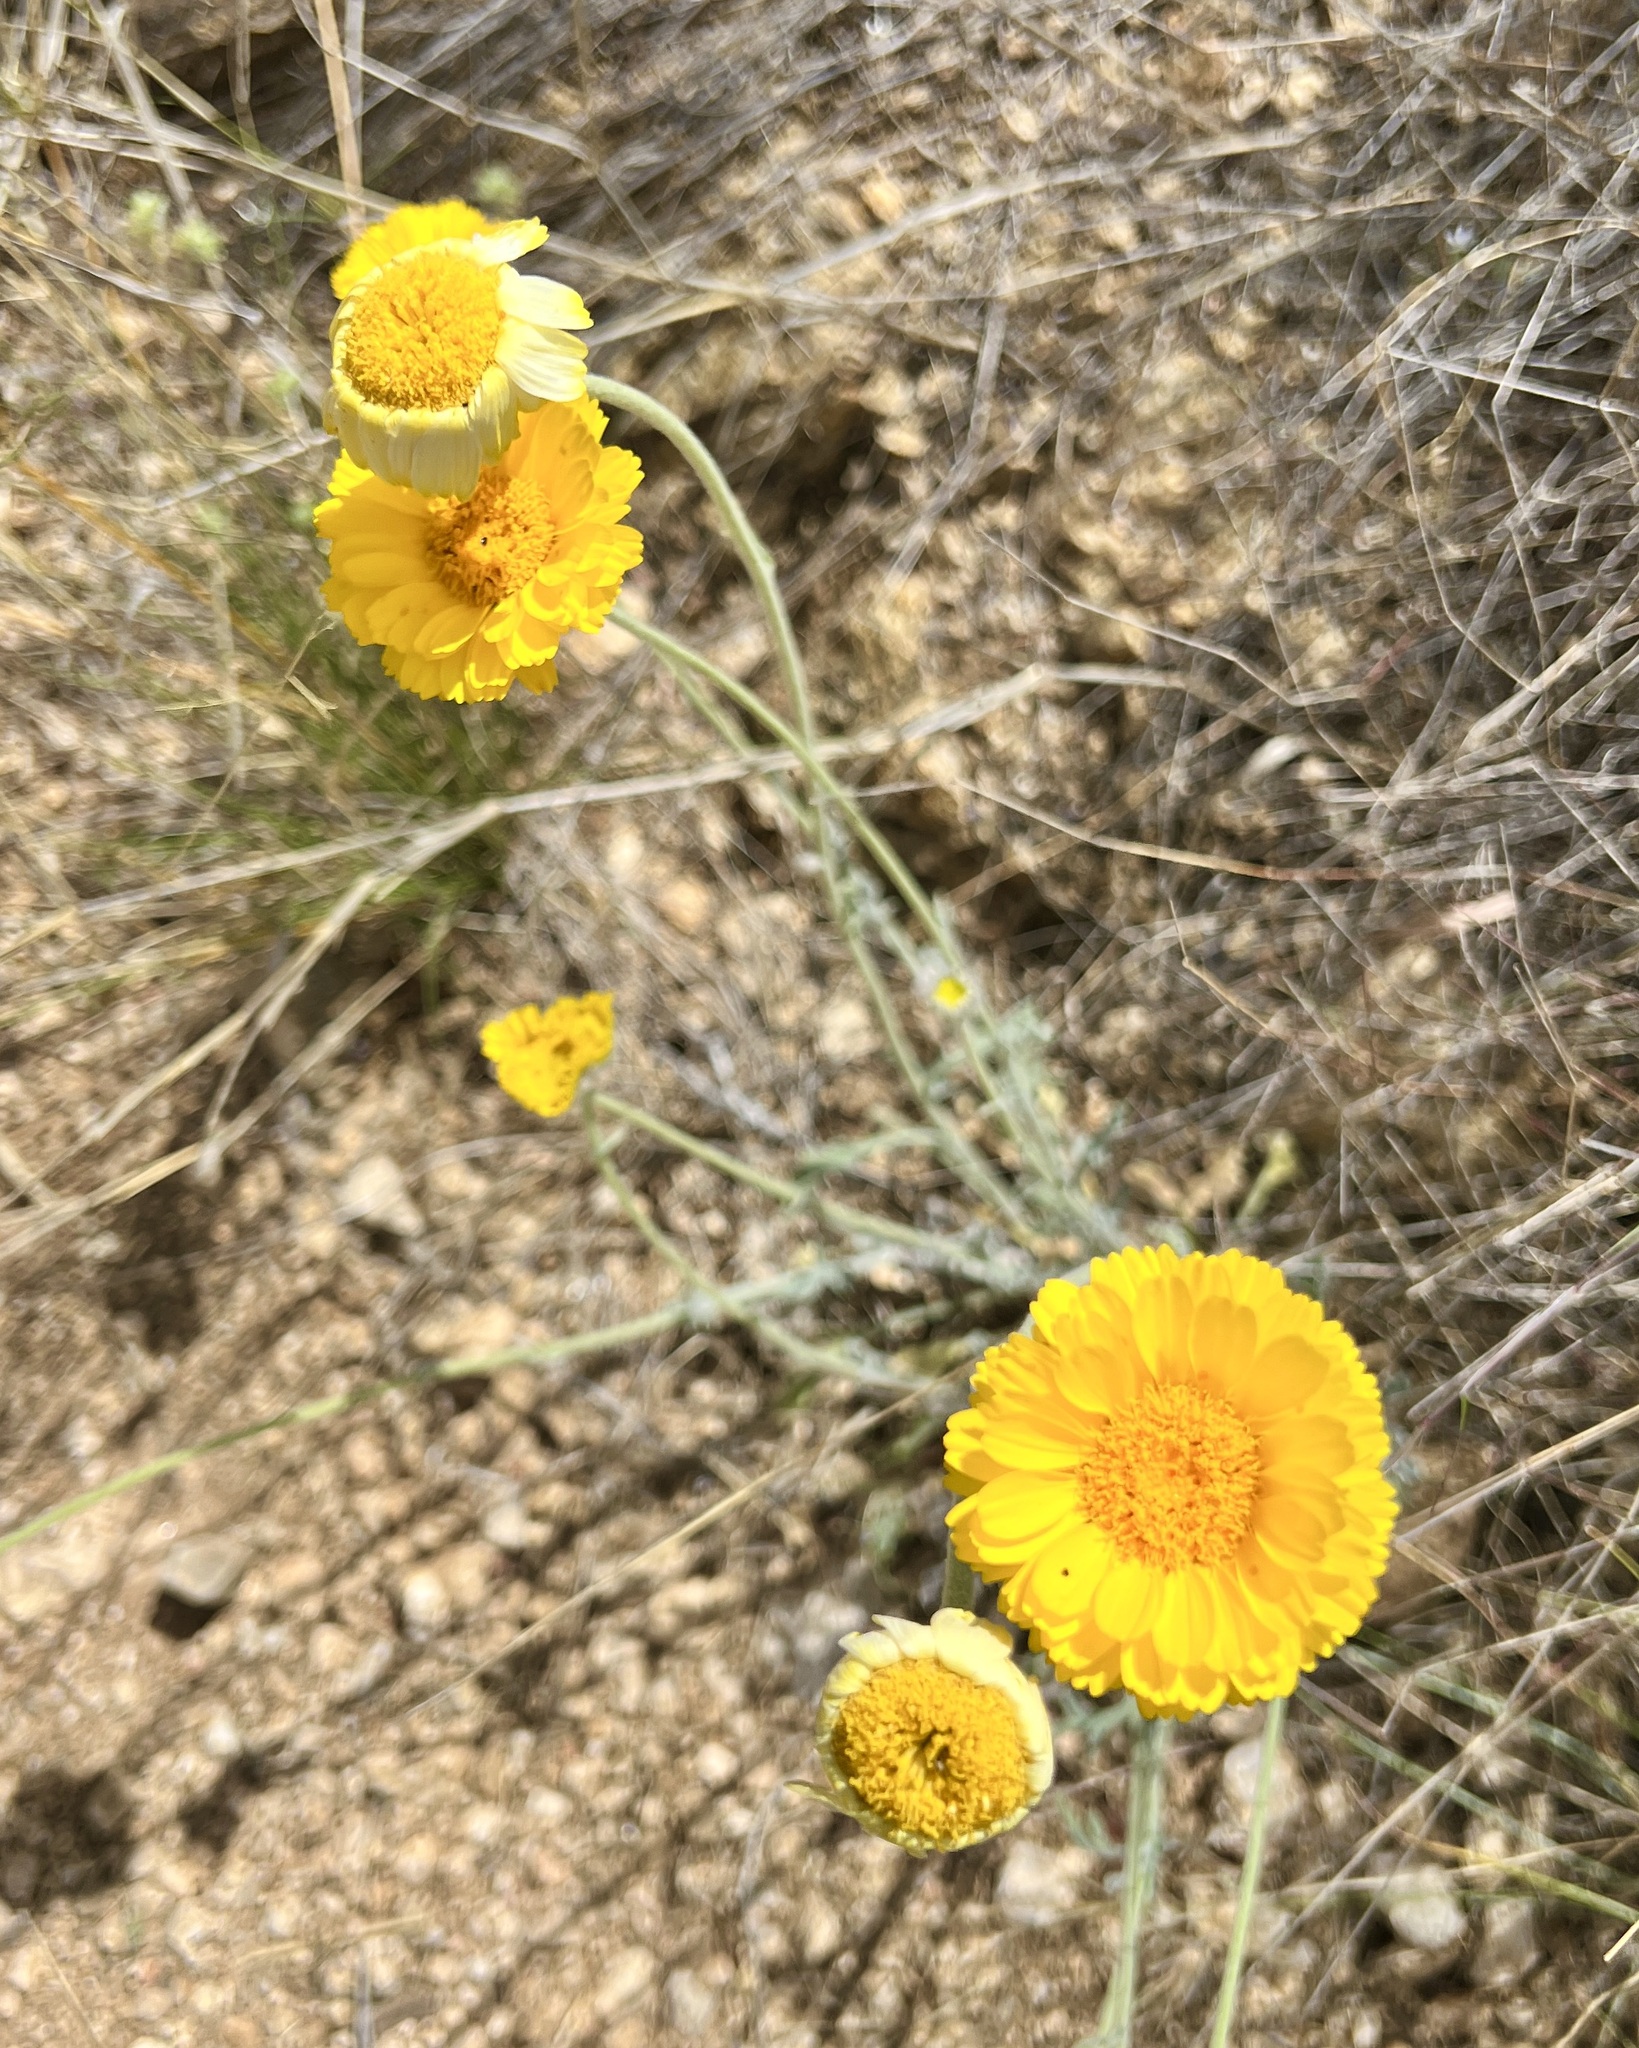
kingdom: Plantae
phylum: Tracheophyta
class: Magnoliopsida
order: Asterales
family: Asteraceae
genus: Baileya
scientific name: Baileya multiradiata
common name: Desert-marigold
